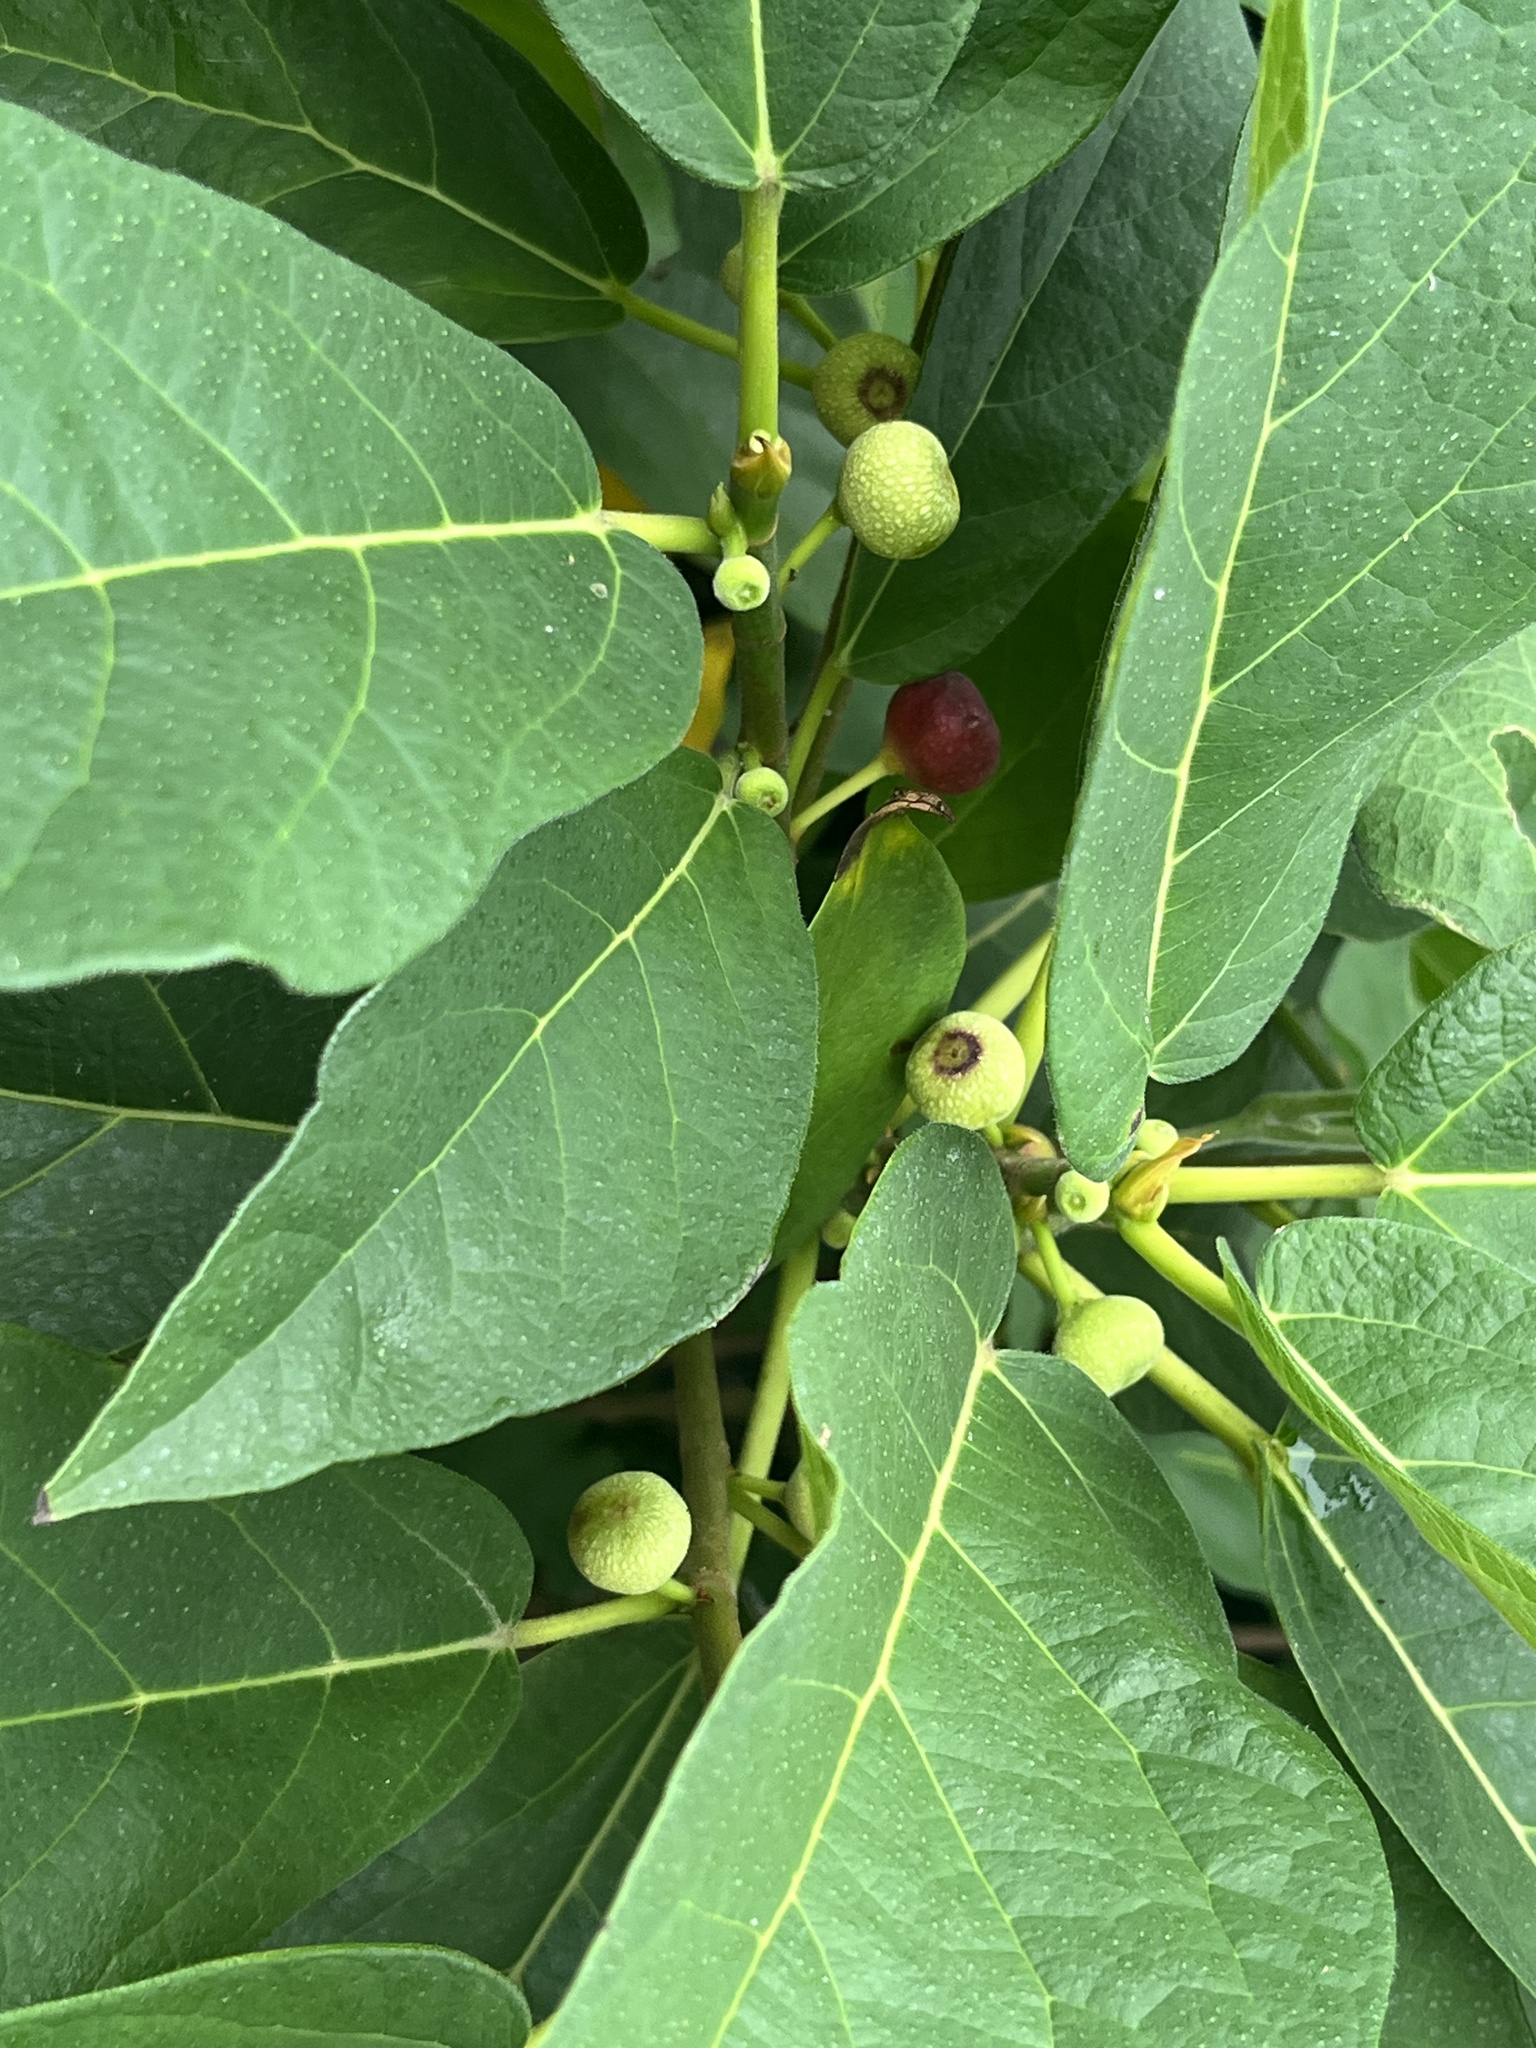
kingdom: Plantae
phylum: Tracheophyta
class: Magnoliopsida
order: Rosales
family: Moraceae
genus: Ficus
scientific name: Ficus erecta
